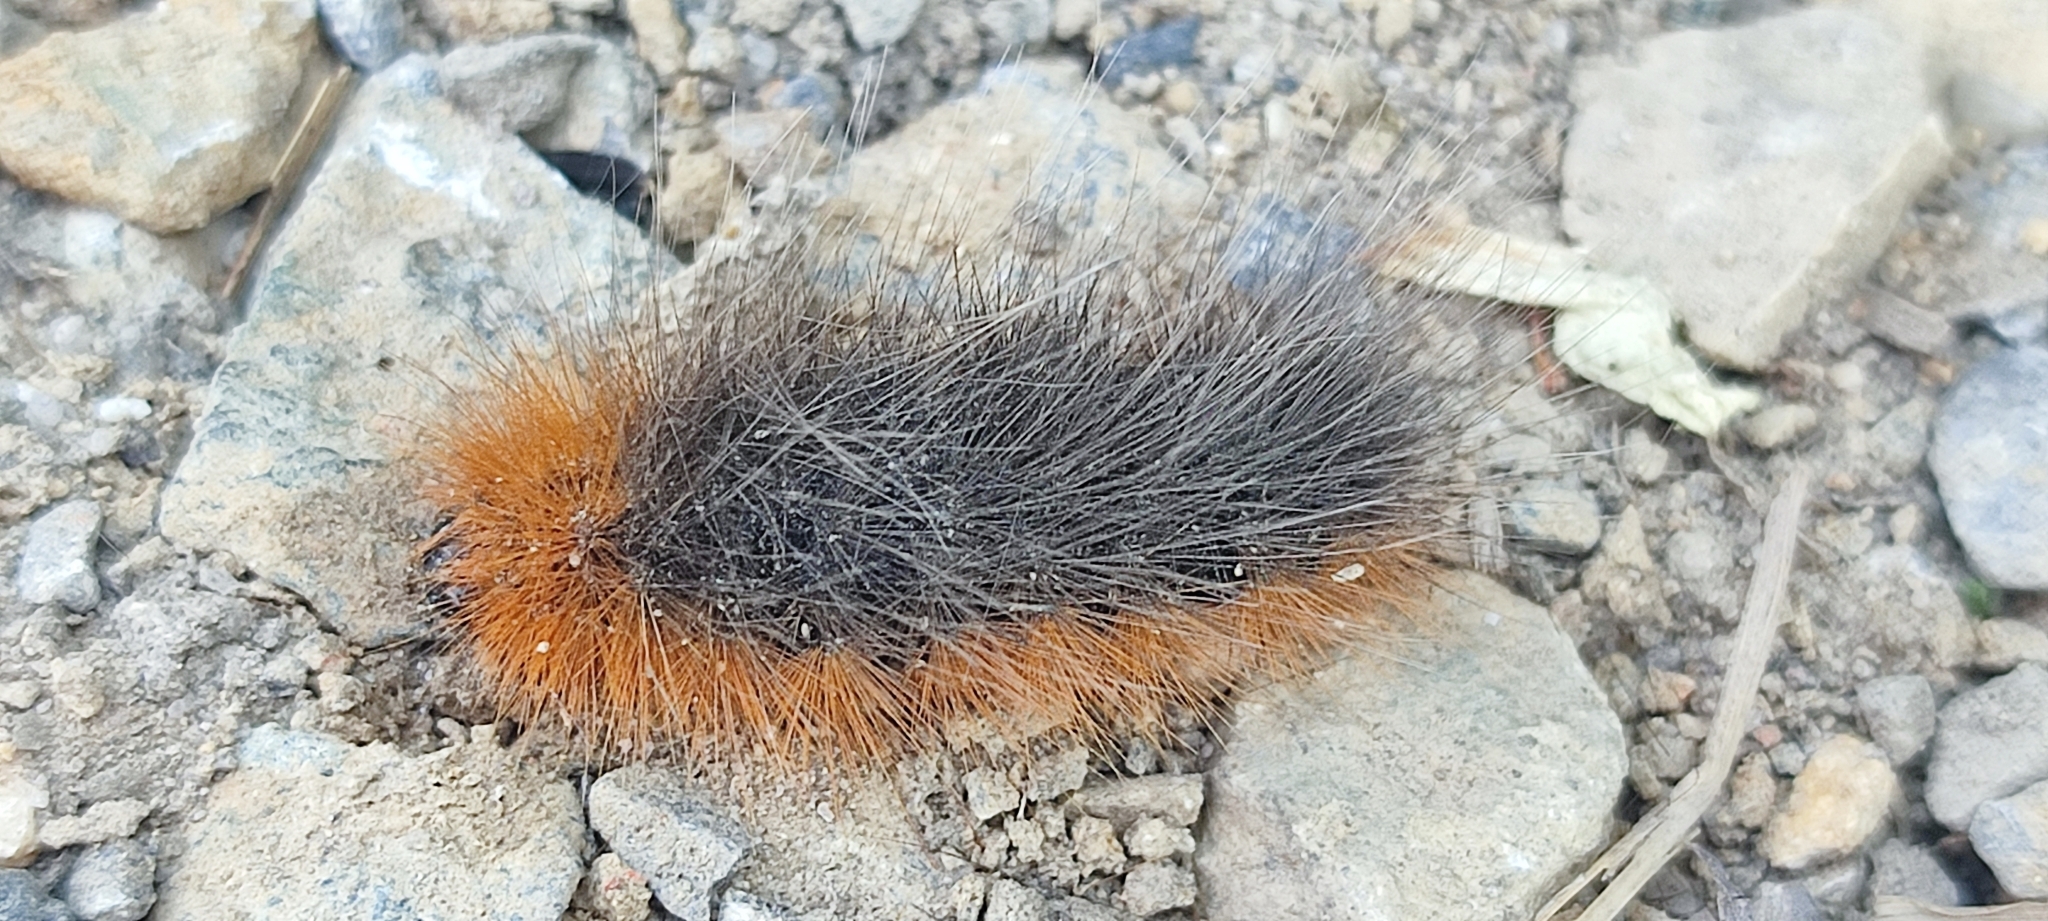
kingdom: Animalia
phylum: Arthropoda
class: Insecta
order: Lepidoptera
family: Erebidae
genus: Arctia
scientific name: Arctia caja
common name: Garden tiger
